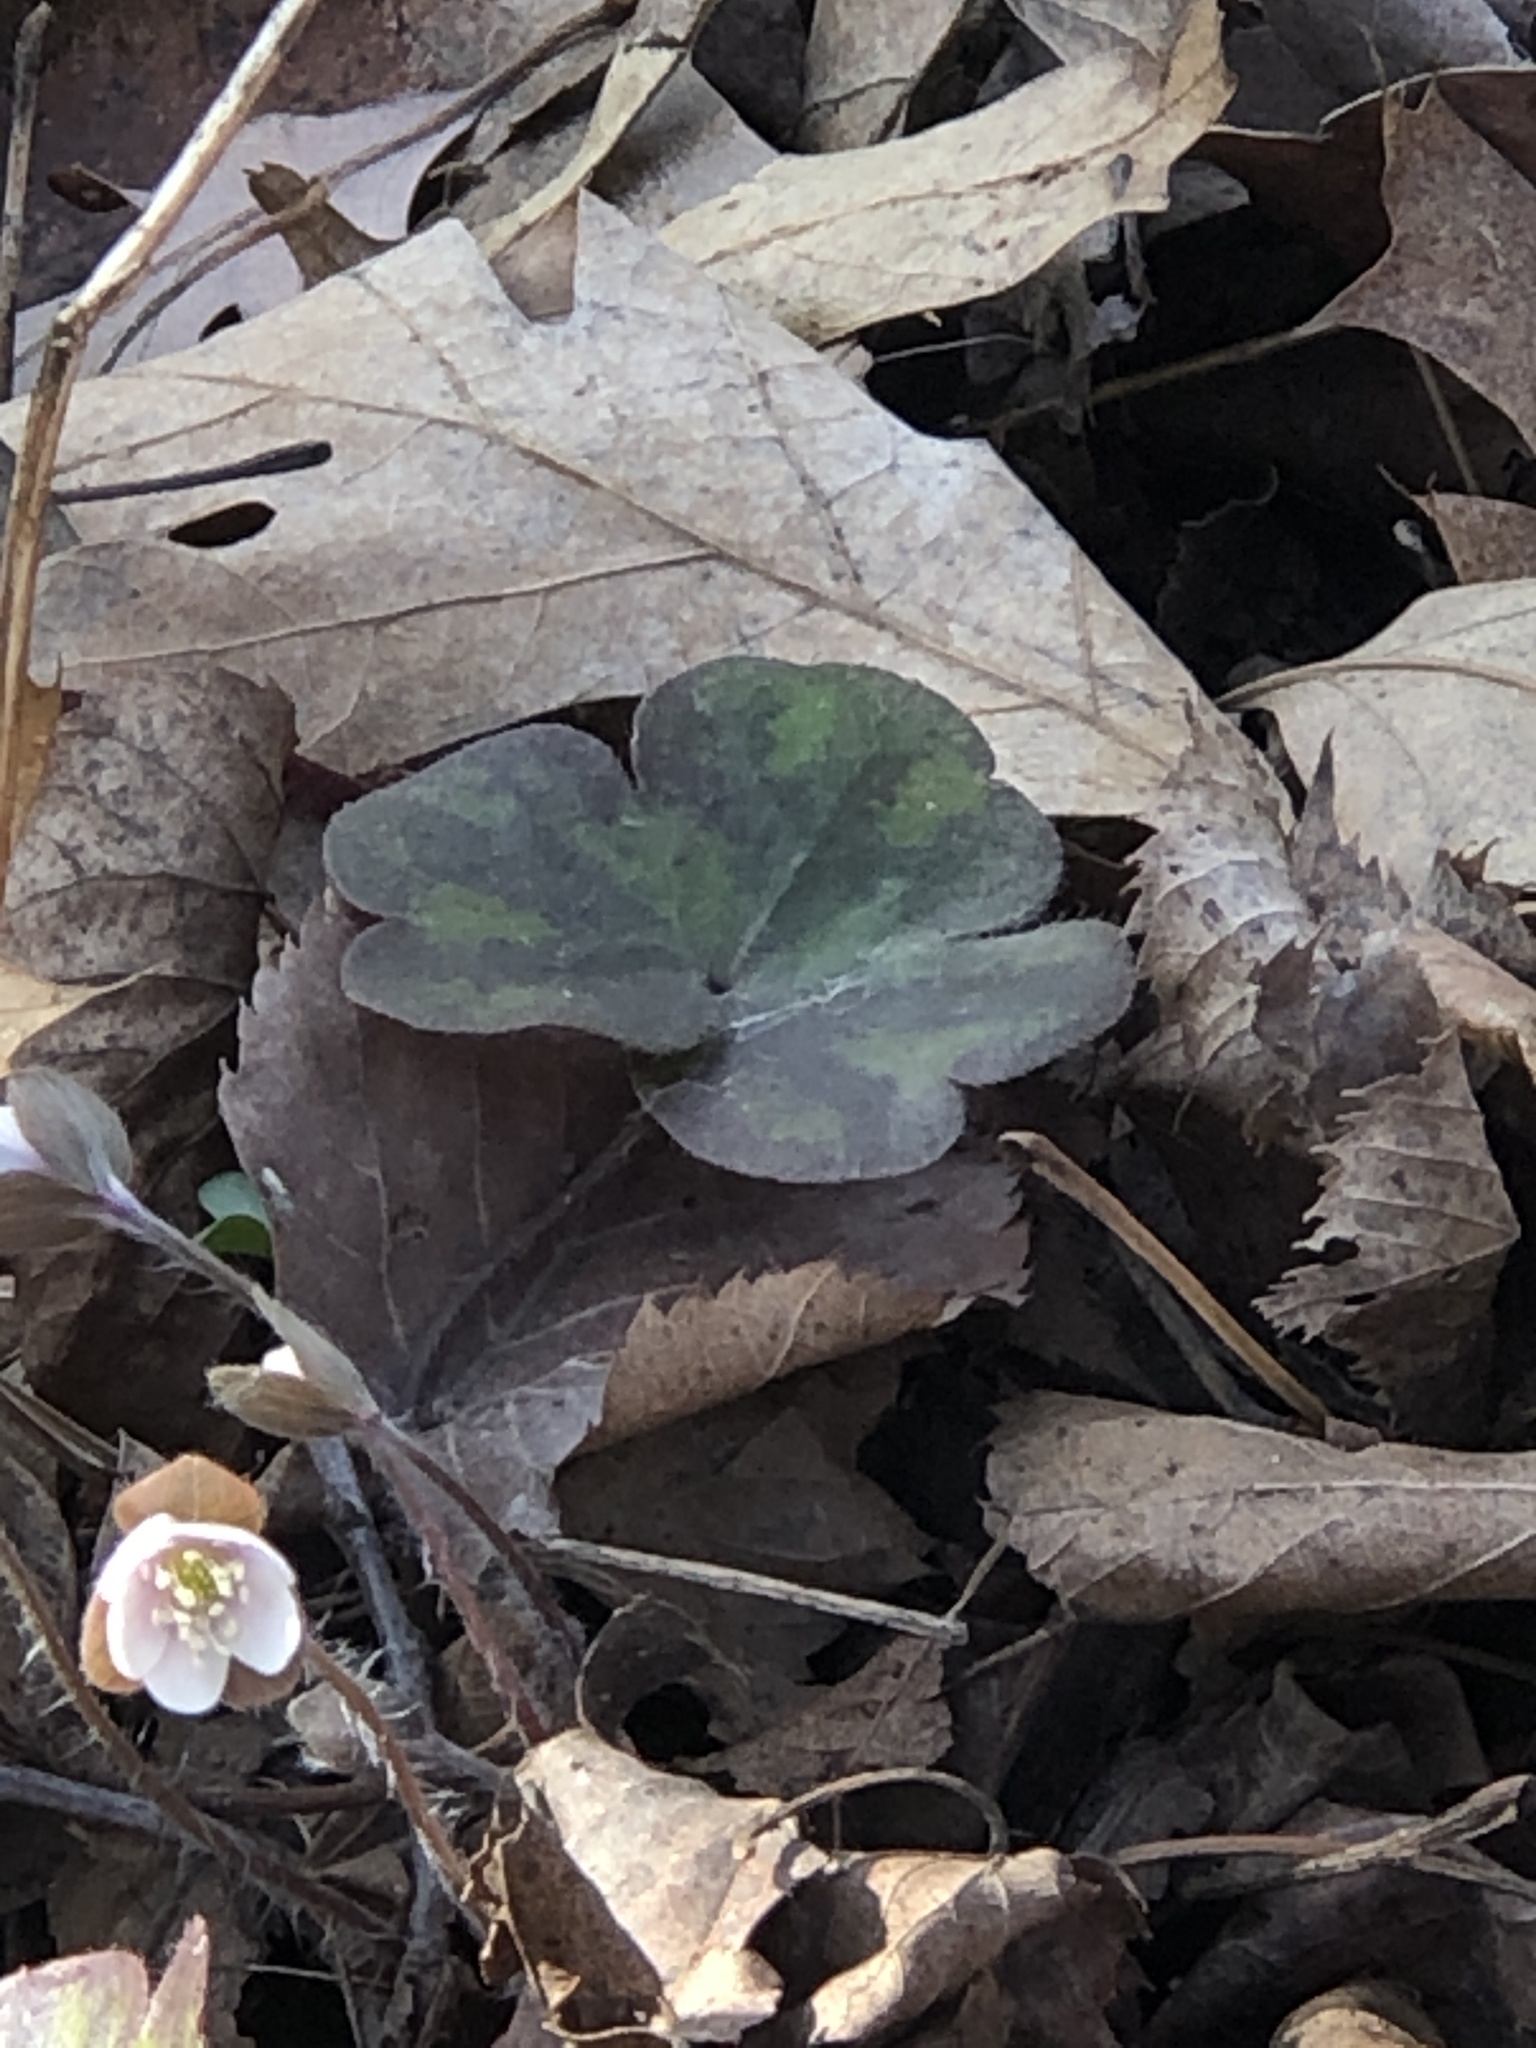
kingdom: Plantae
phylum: Tracheophyta
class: Magnoliopsida
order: Ranunculales
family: Ranunculaceae
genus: Hepatica
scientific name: Hepatica americana
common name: American hepatica
